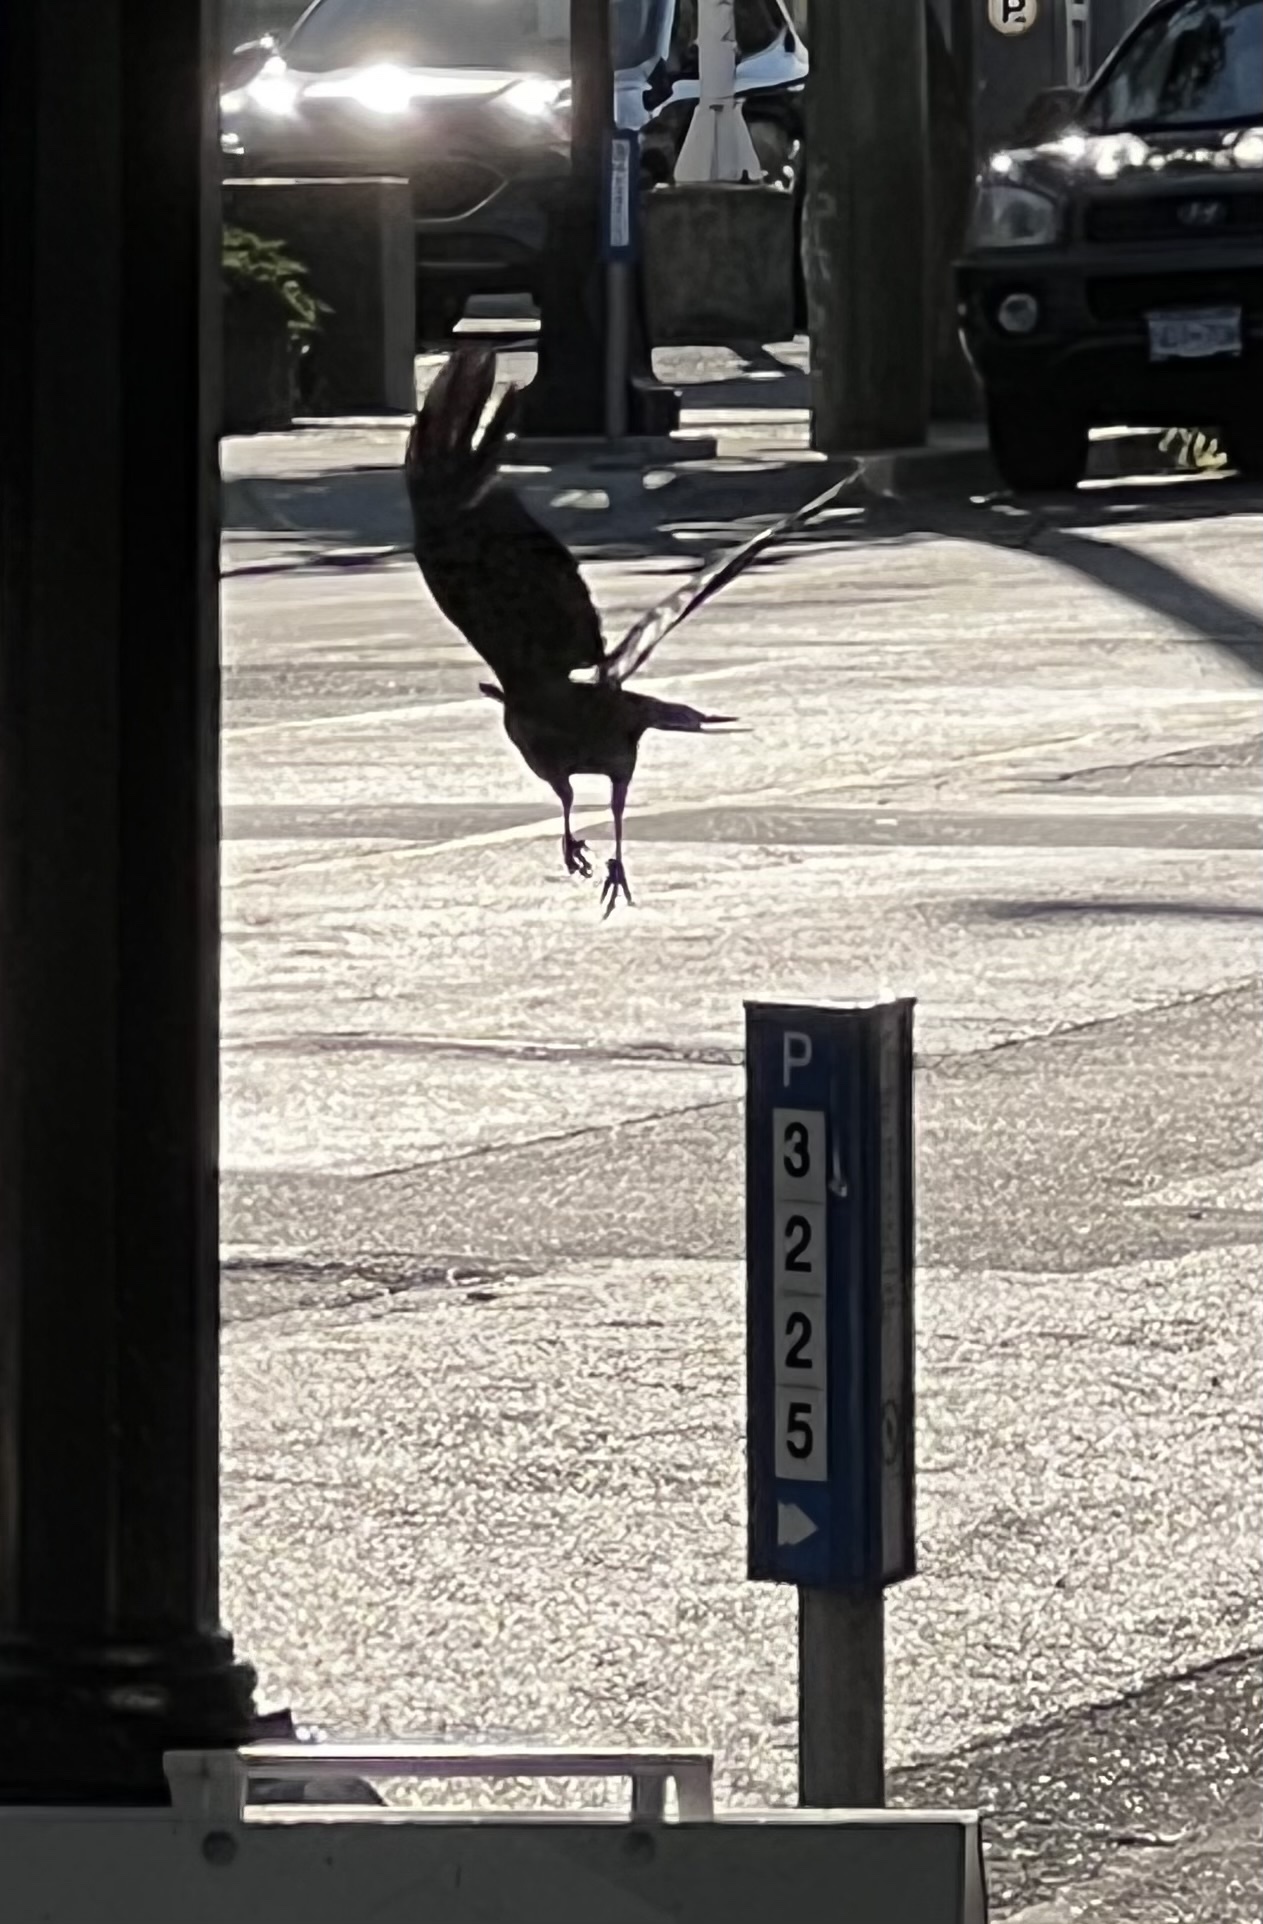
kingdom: Animalia
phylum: Chordata
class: Aves
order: Passeriformes
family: Corvidae
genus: Corvus
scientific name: Corvus brachyrhynchos
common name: American crow
